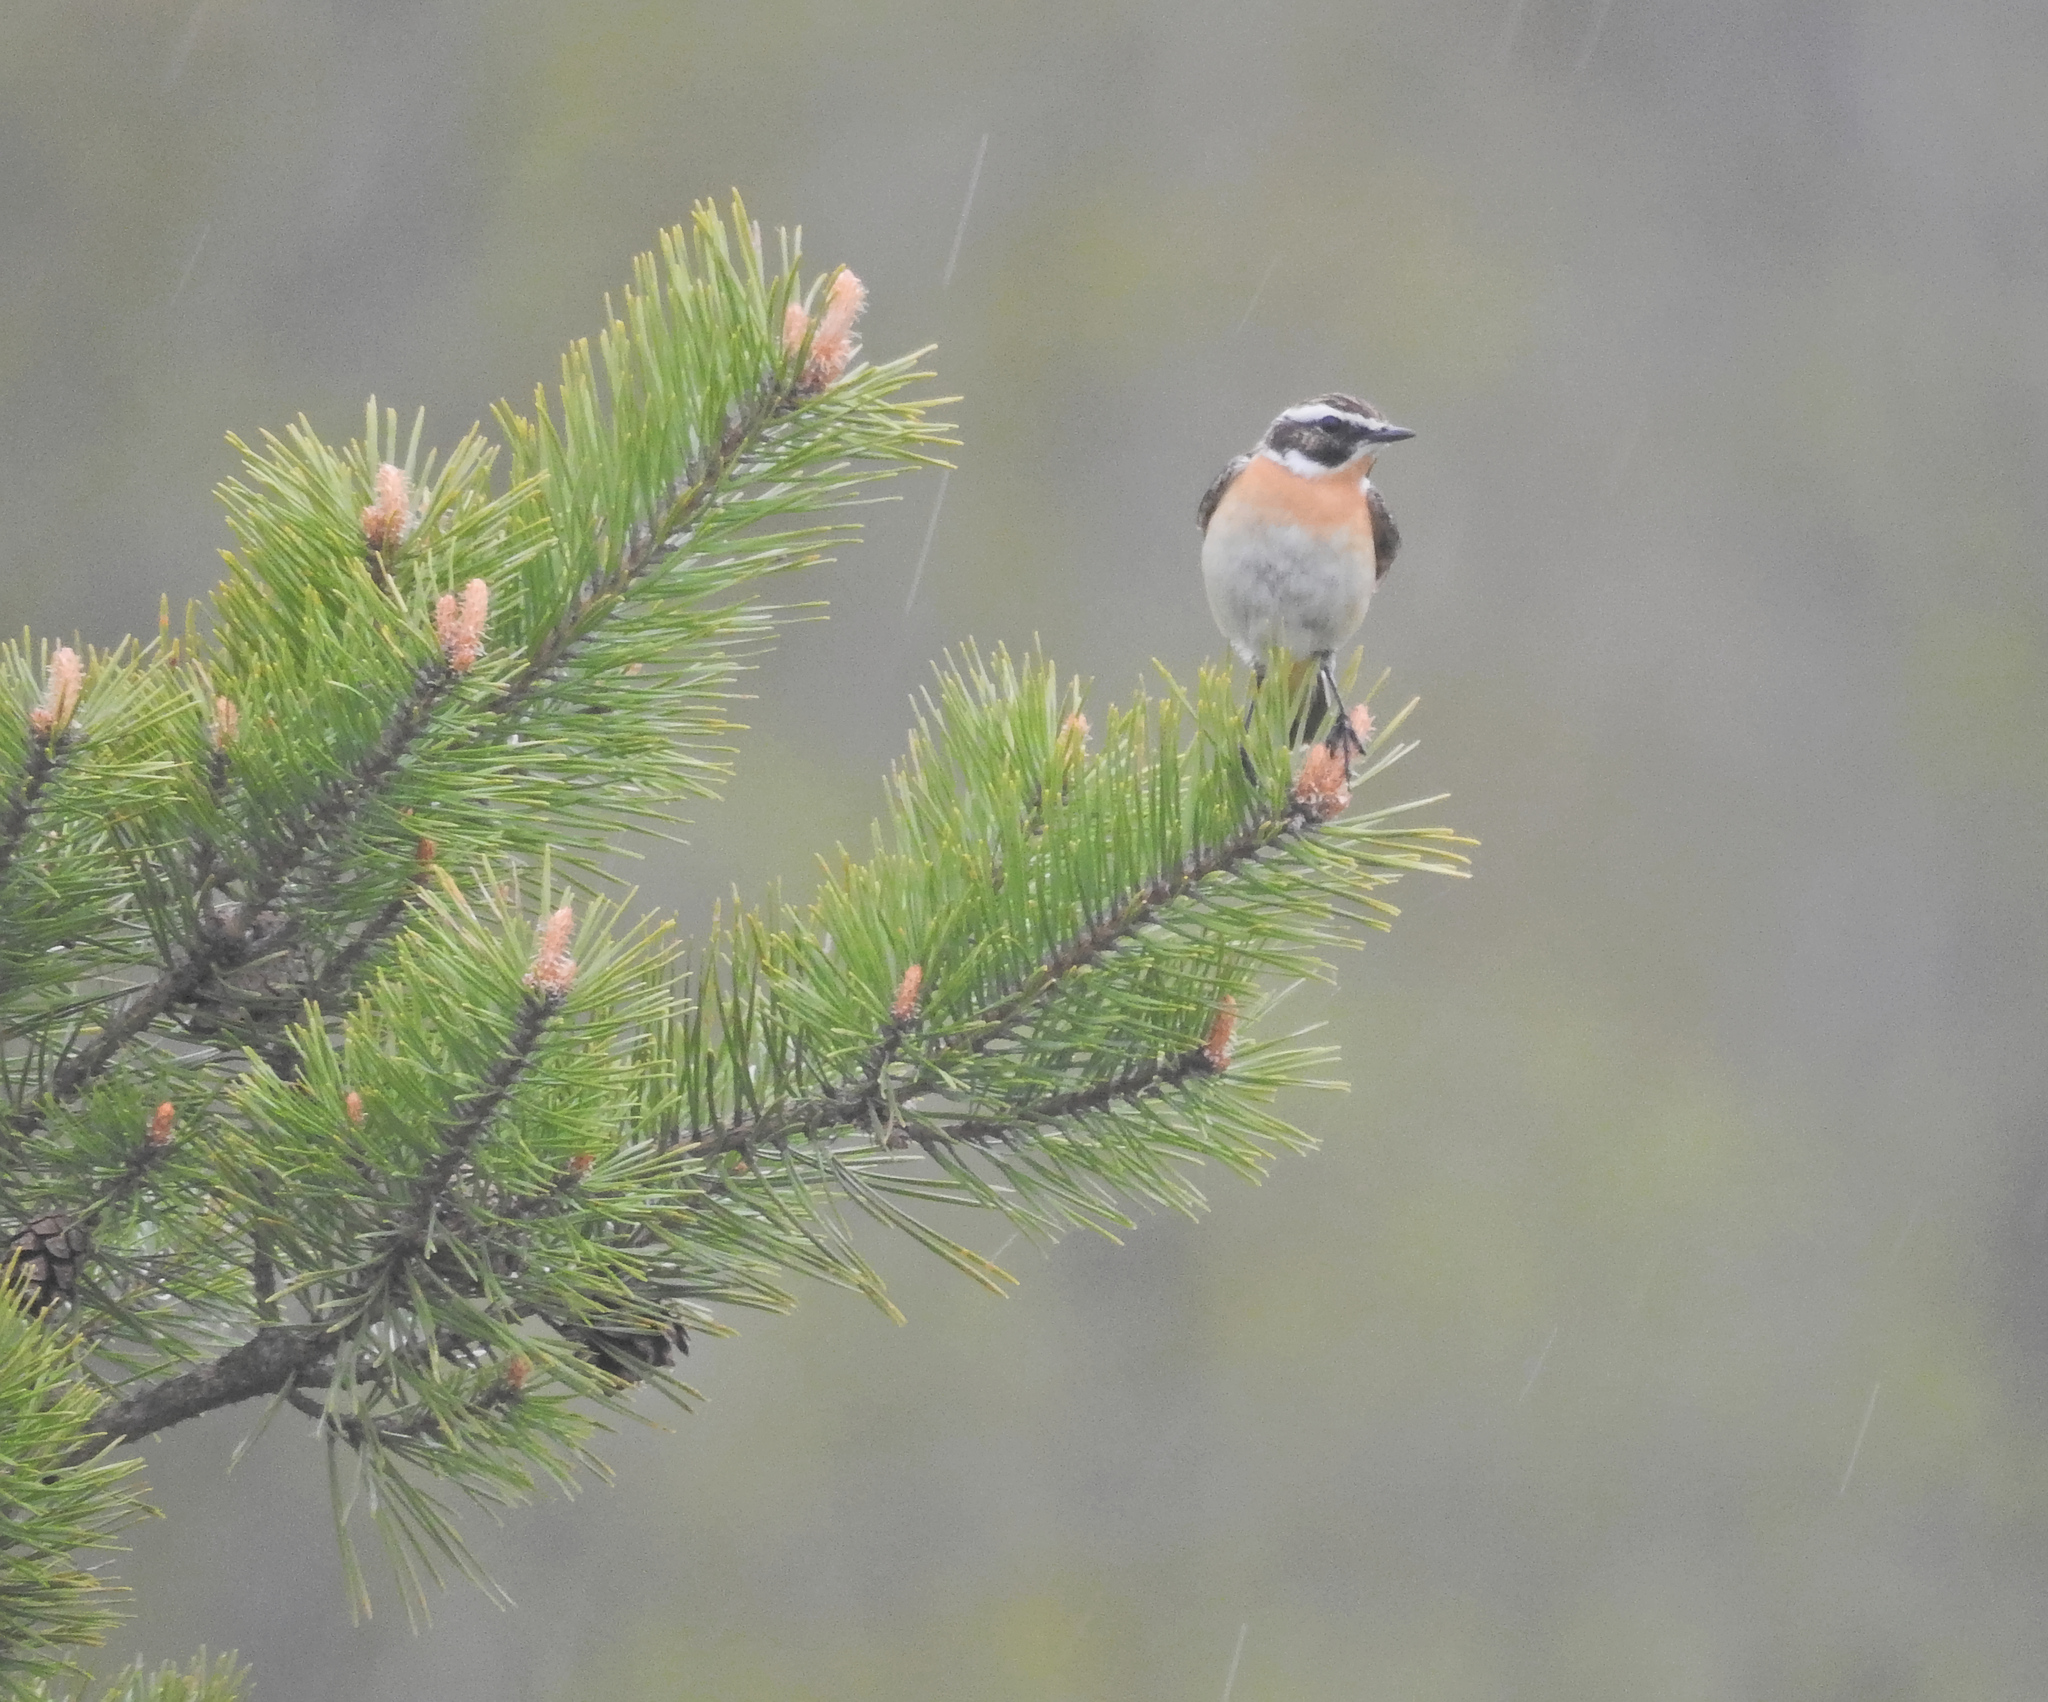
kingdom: Animalia
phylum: Chordata
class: Aves
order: Passeriformes
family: Muscicapidae
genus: Saxicola
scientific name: Saxicola rubetra
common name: Whinchat
